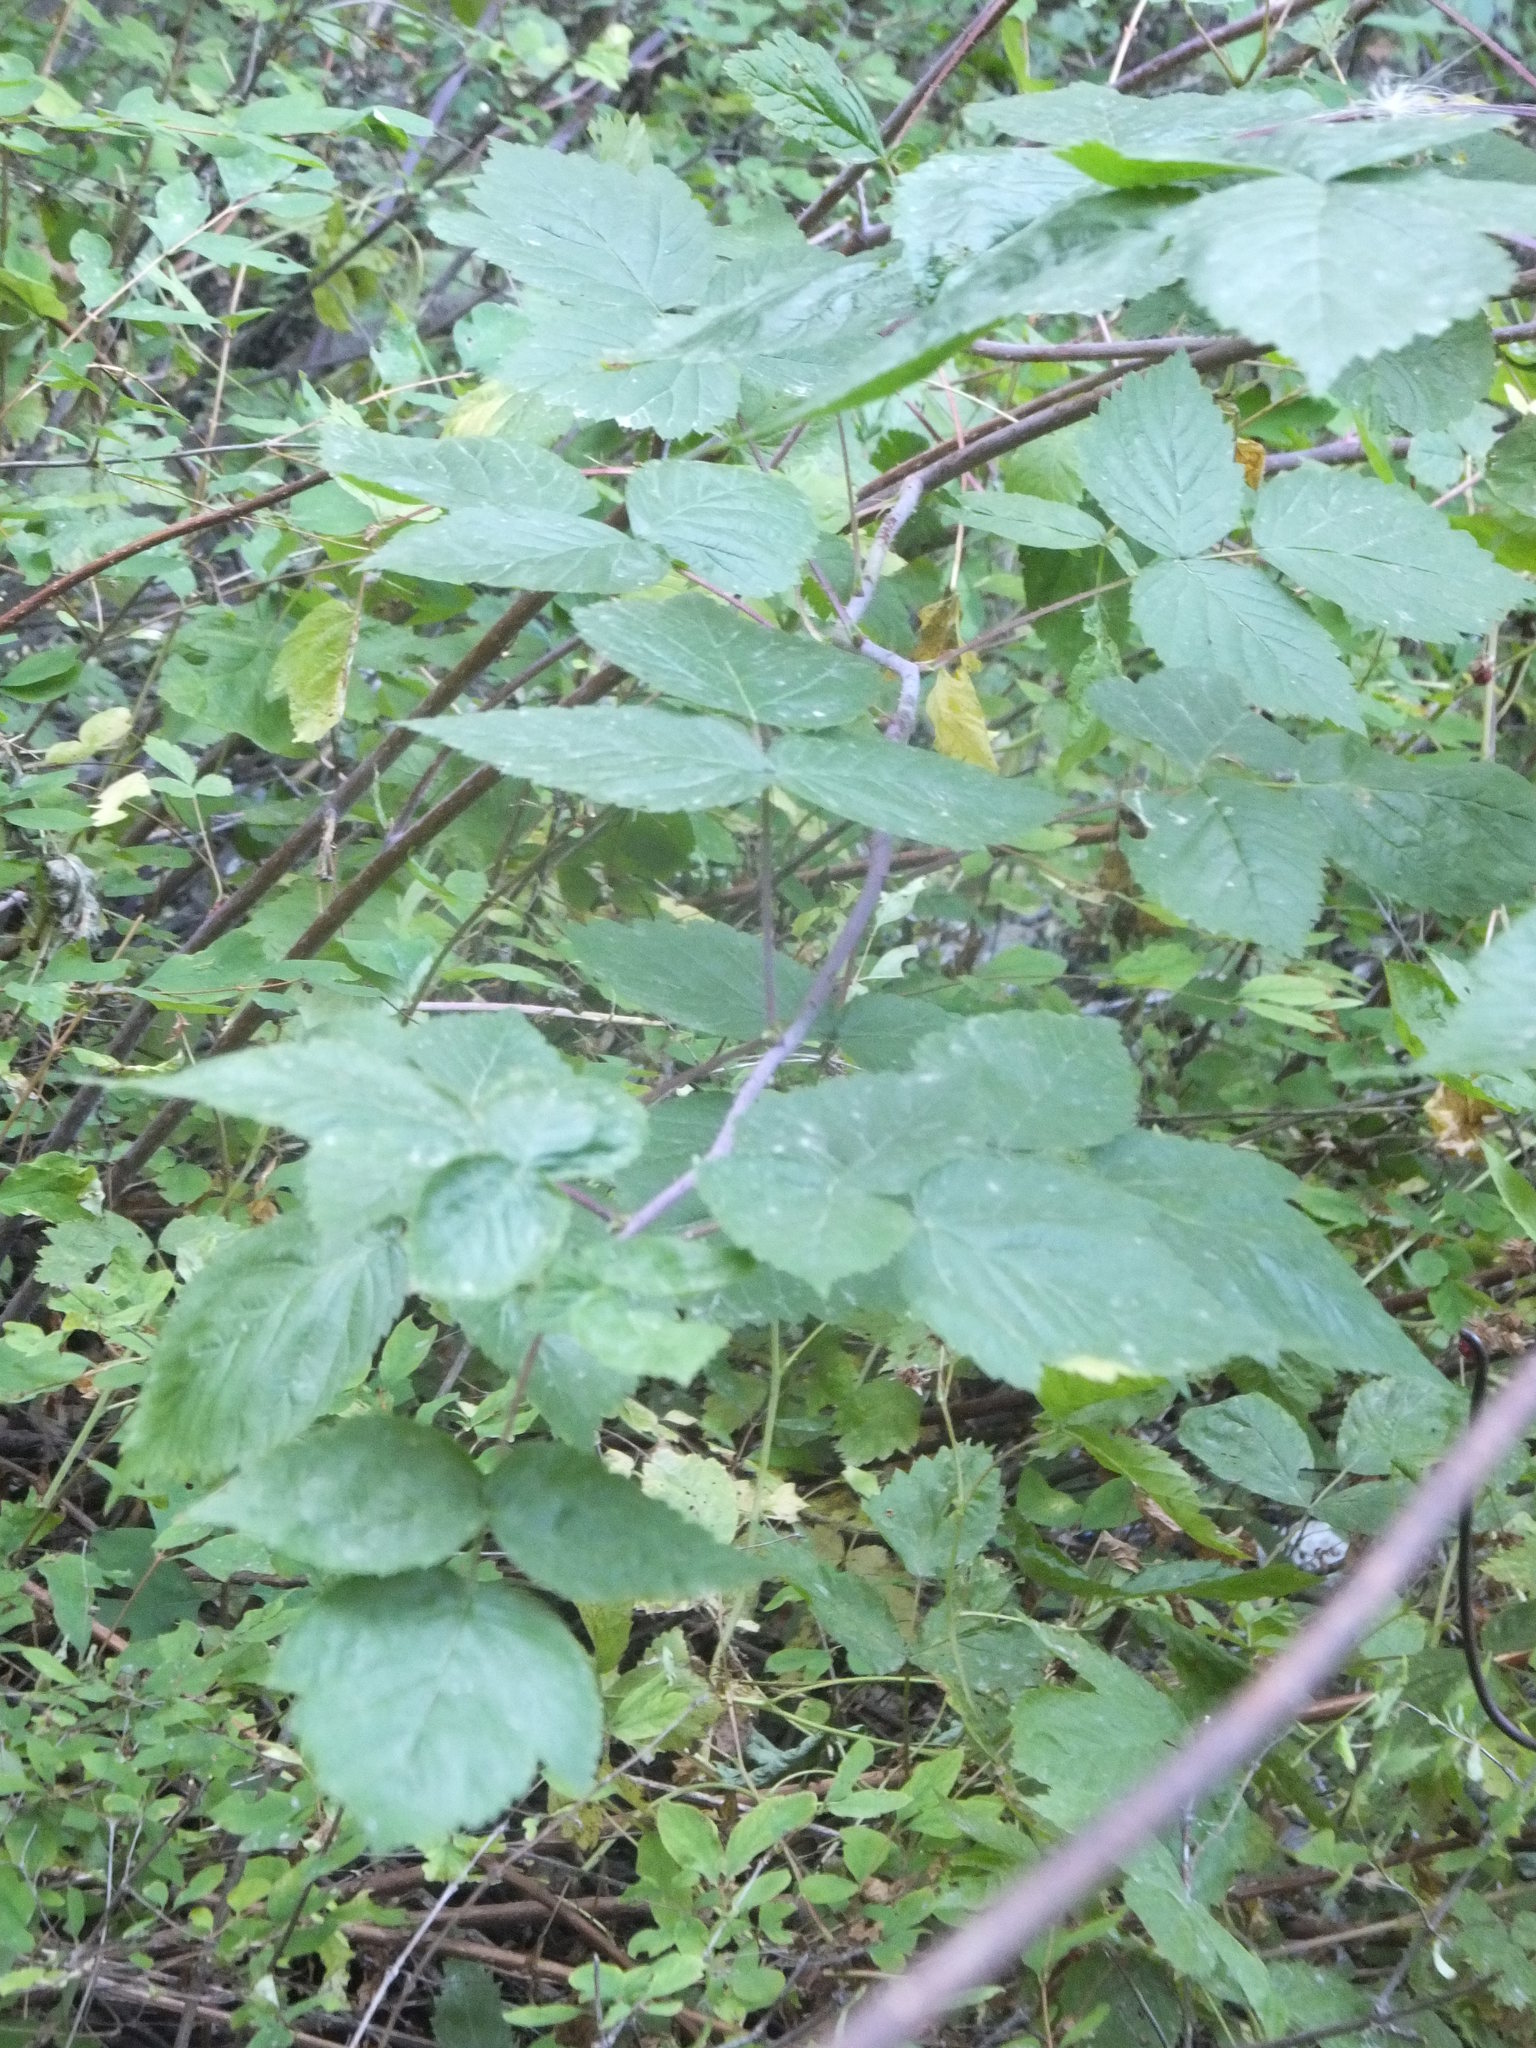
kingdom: Plantae
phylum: Tracheophyta
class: Magnoliopsida
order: Rosales
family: Rosaceae
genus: Rubus
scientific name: Rubus idaeus
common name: Raspberry
